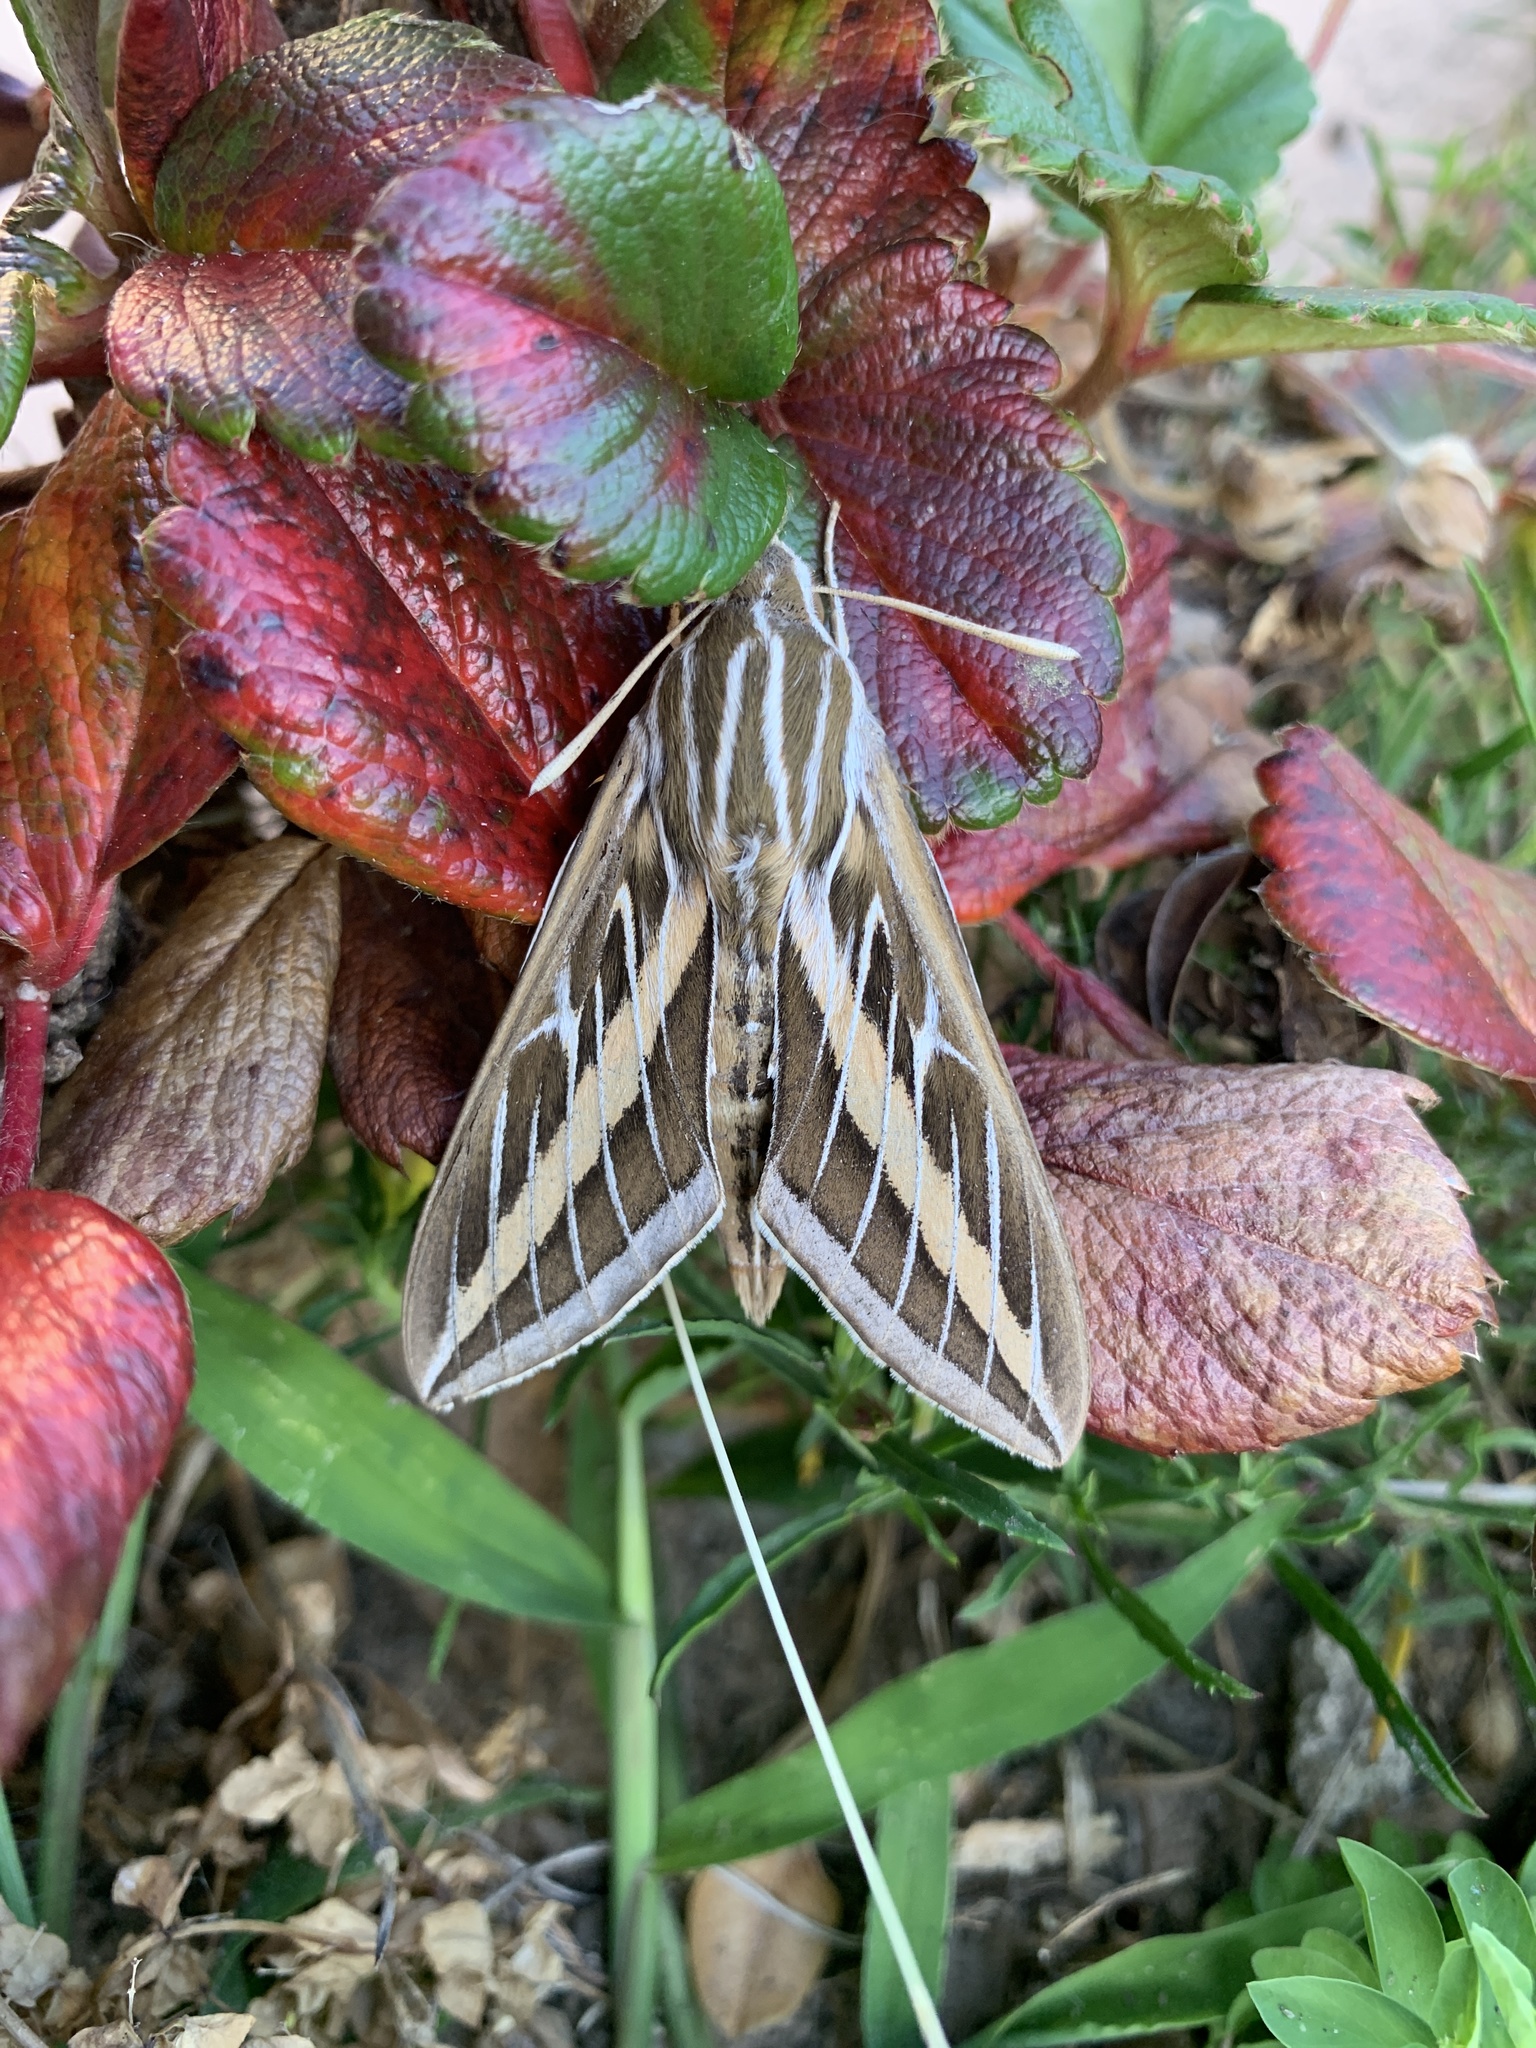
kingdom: Animalia
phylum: Arthropoda
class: Insecta
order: Lepidoptera
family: Sphingidae
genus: Hyles
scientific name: Hyles lineata
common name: White-lined sphinx
